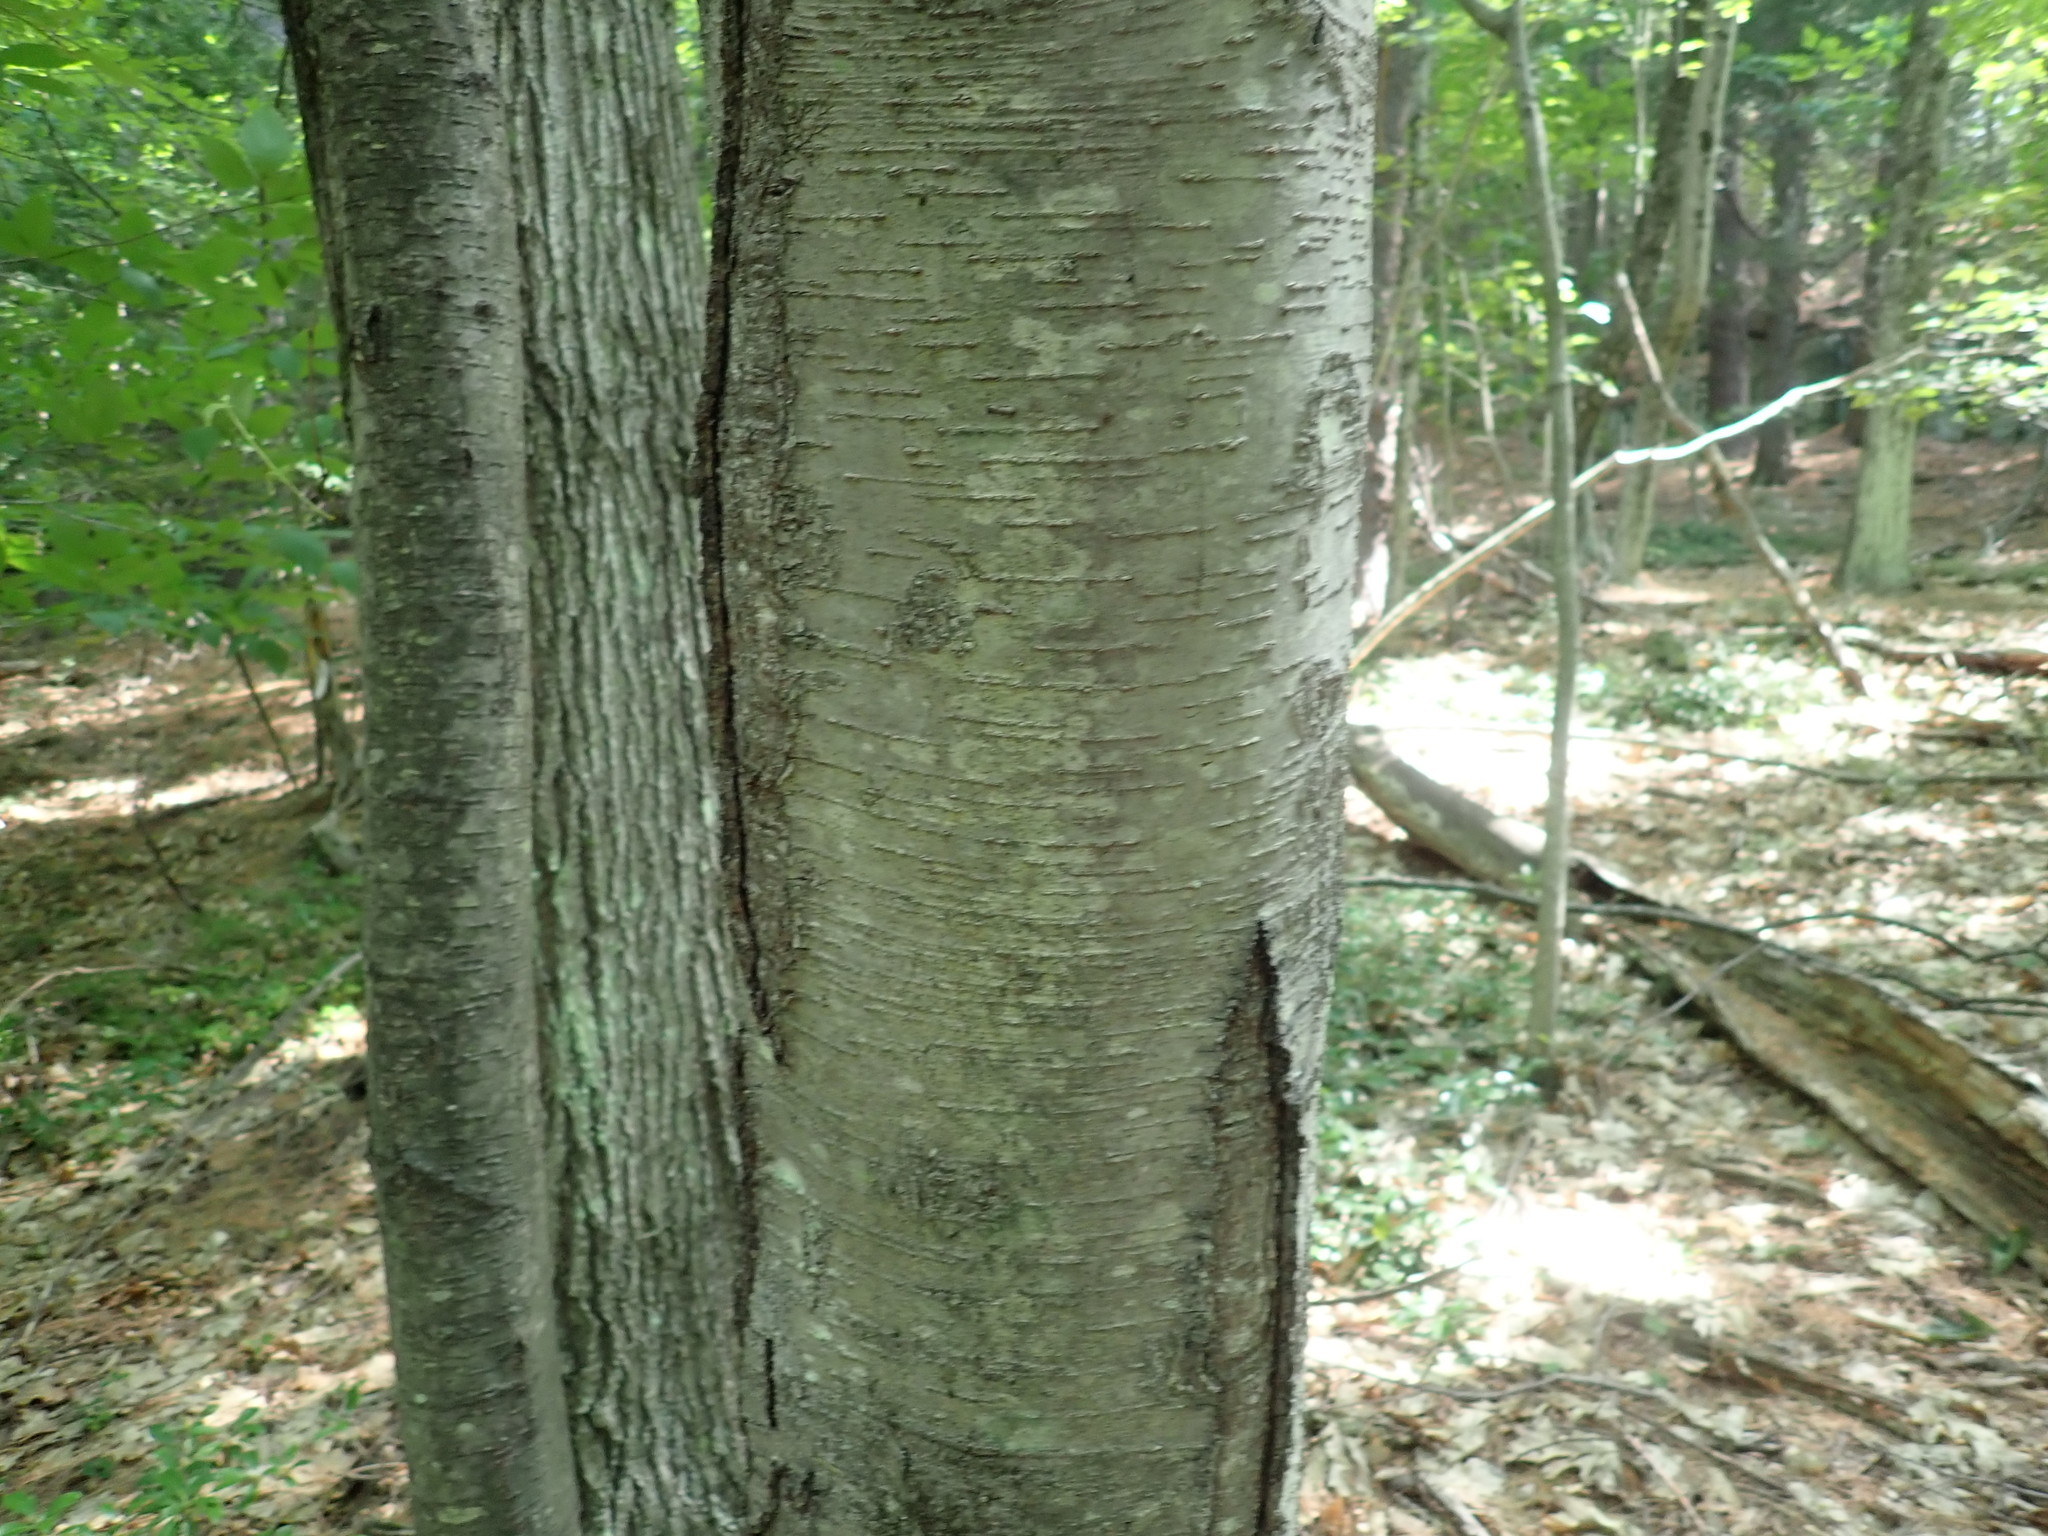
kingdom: Plantae
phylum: Tracheophyta
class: Magnoliopsida
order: Fagales
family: Betulaceae
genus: Betula
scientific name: Betula lenta
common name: Black birch
